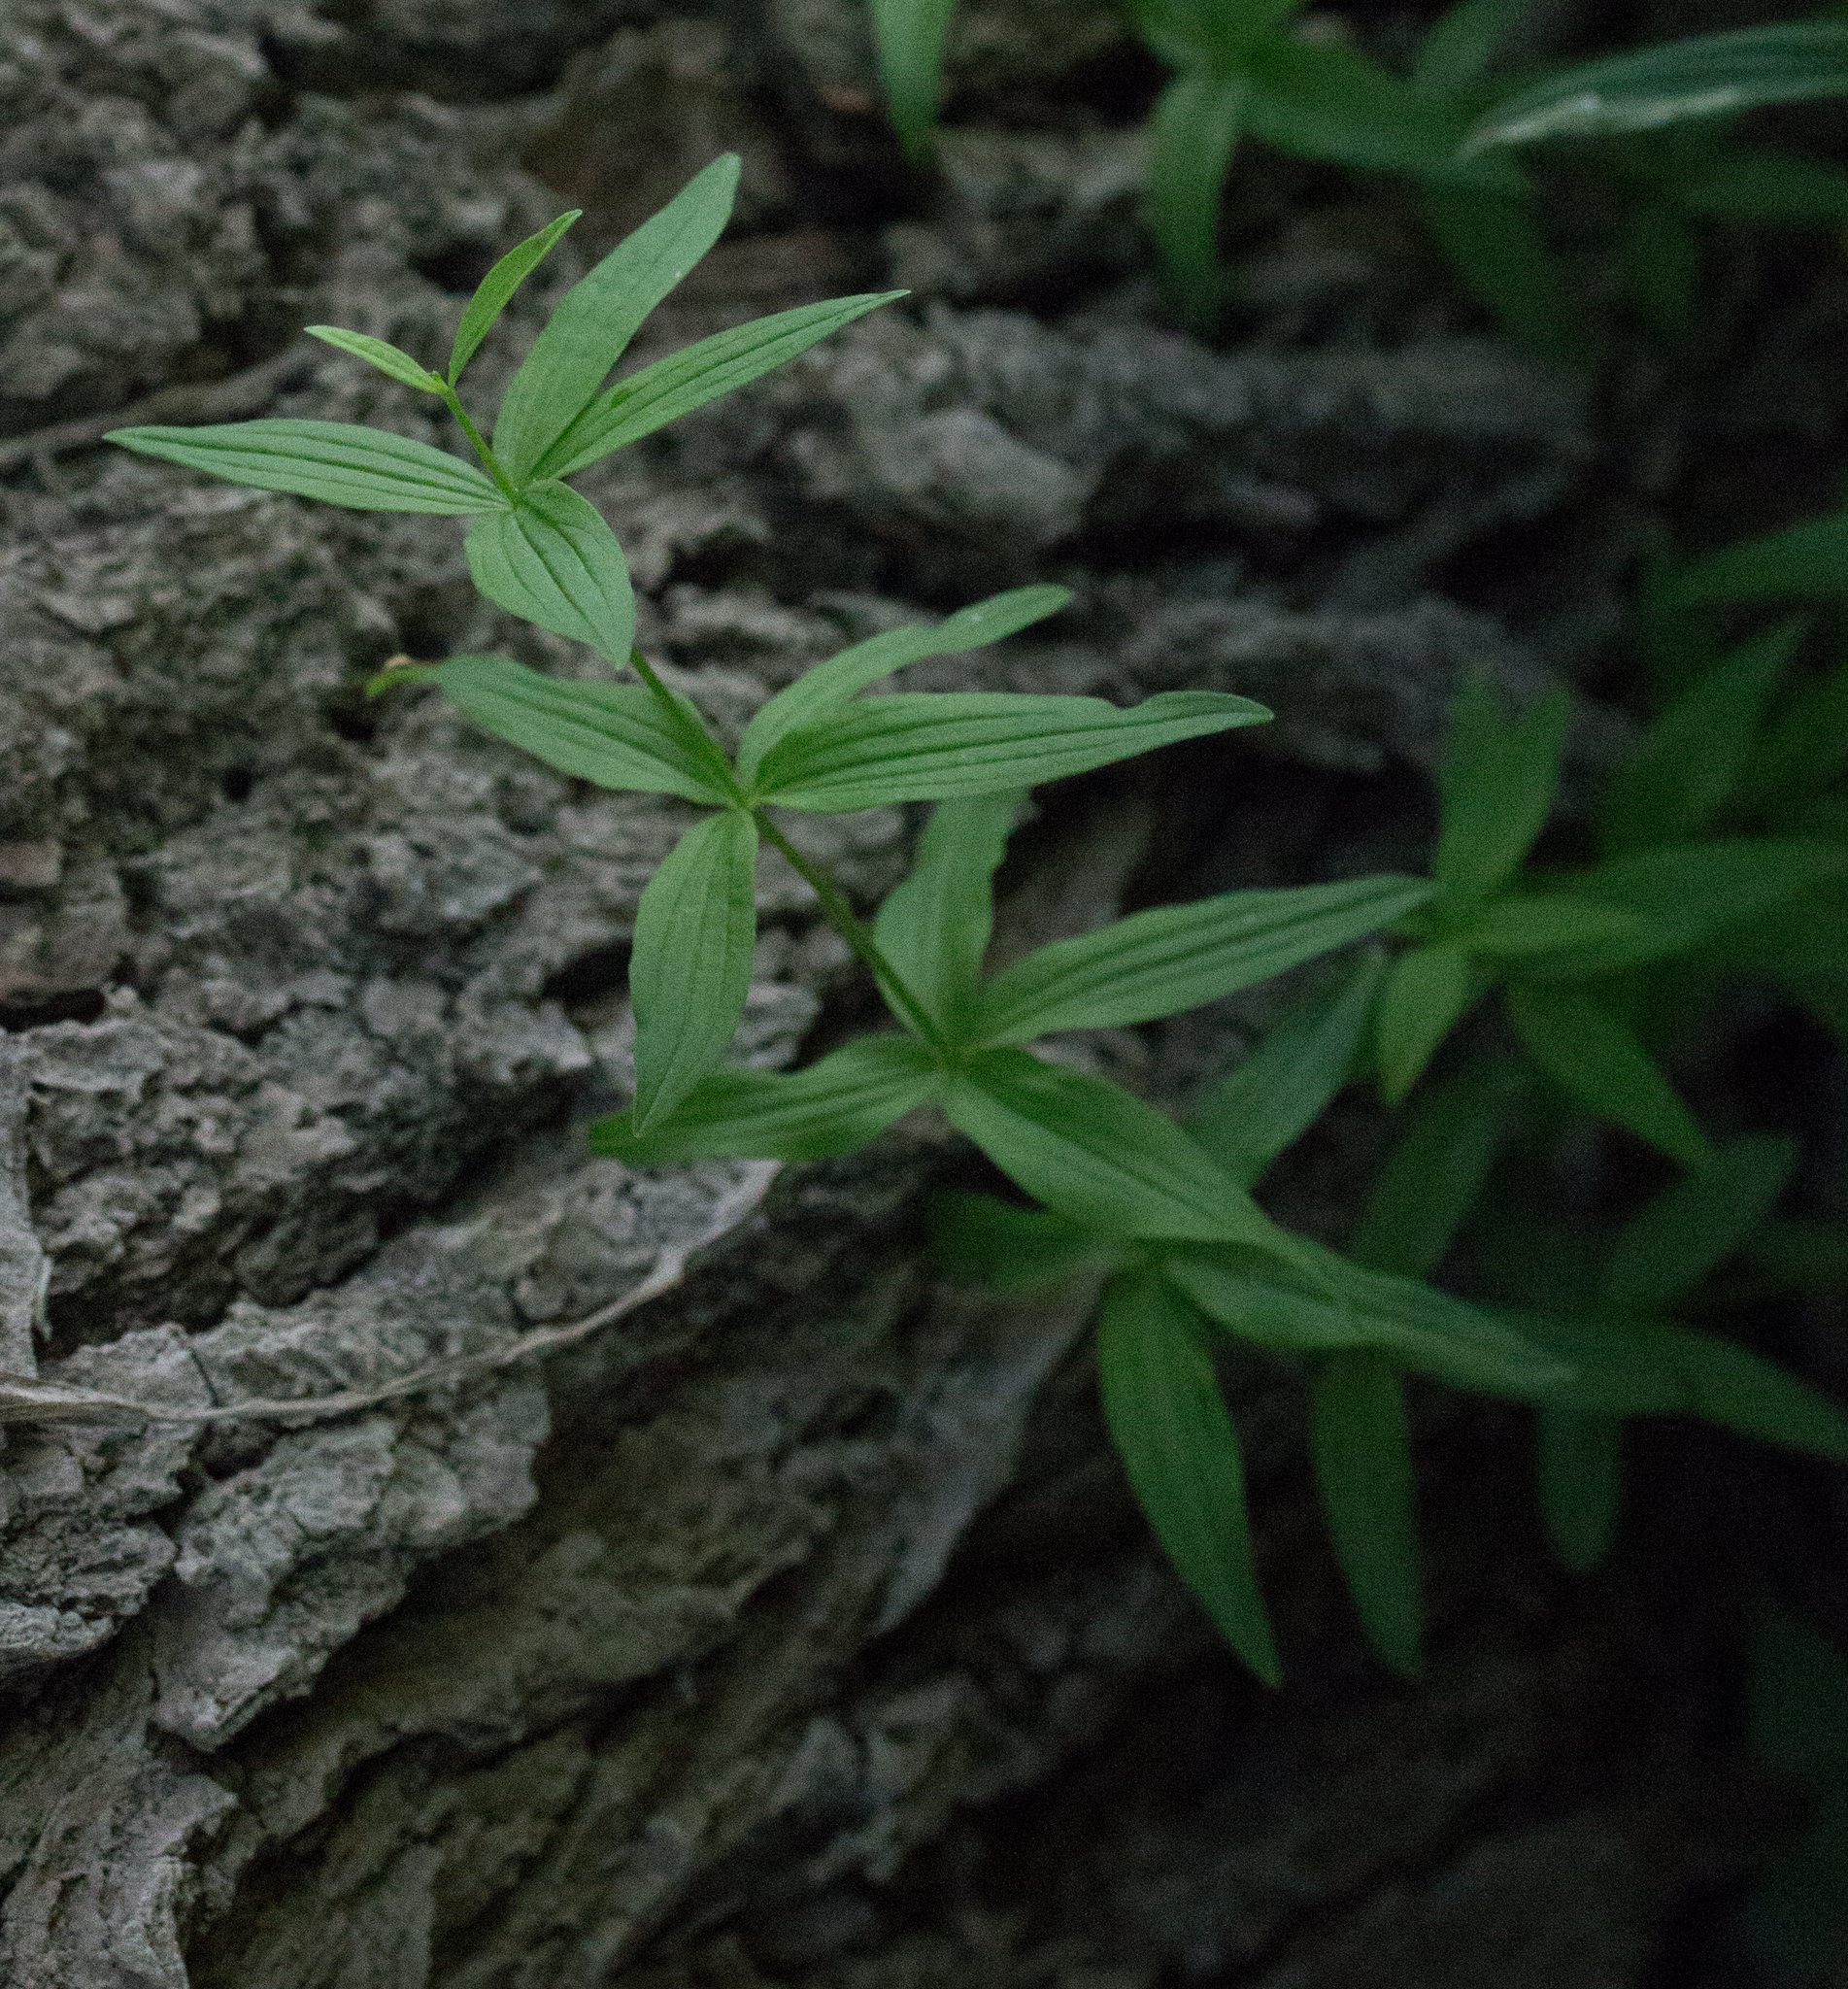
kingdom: Plantae
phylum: Tracheophyta
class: Magnoliopsida
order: Gentianales
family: Rubiaceae
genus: Galium
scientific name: Galium boreale
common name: Northern bedstraw
